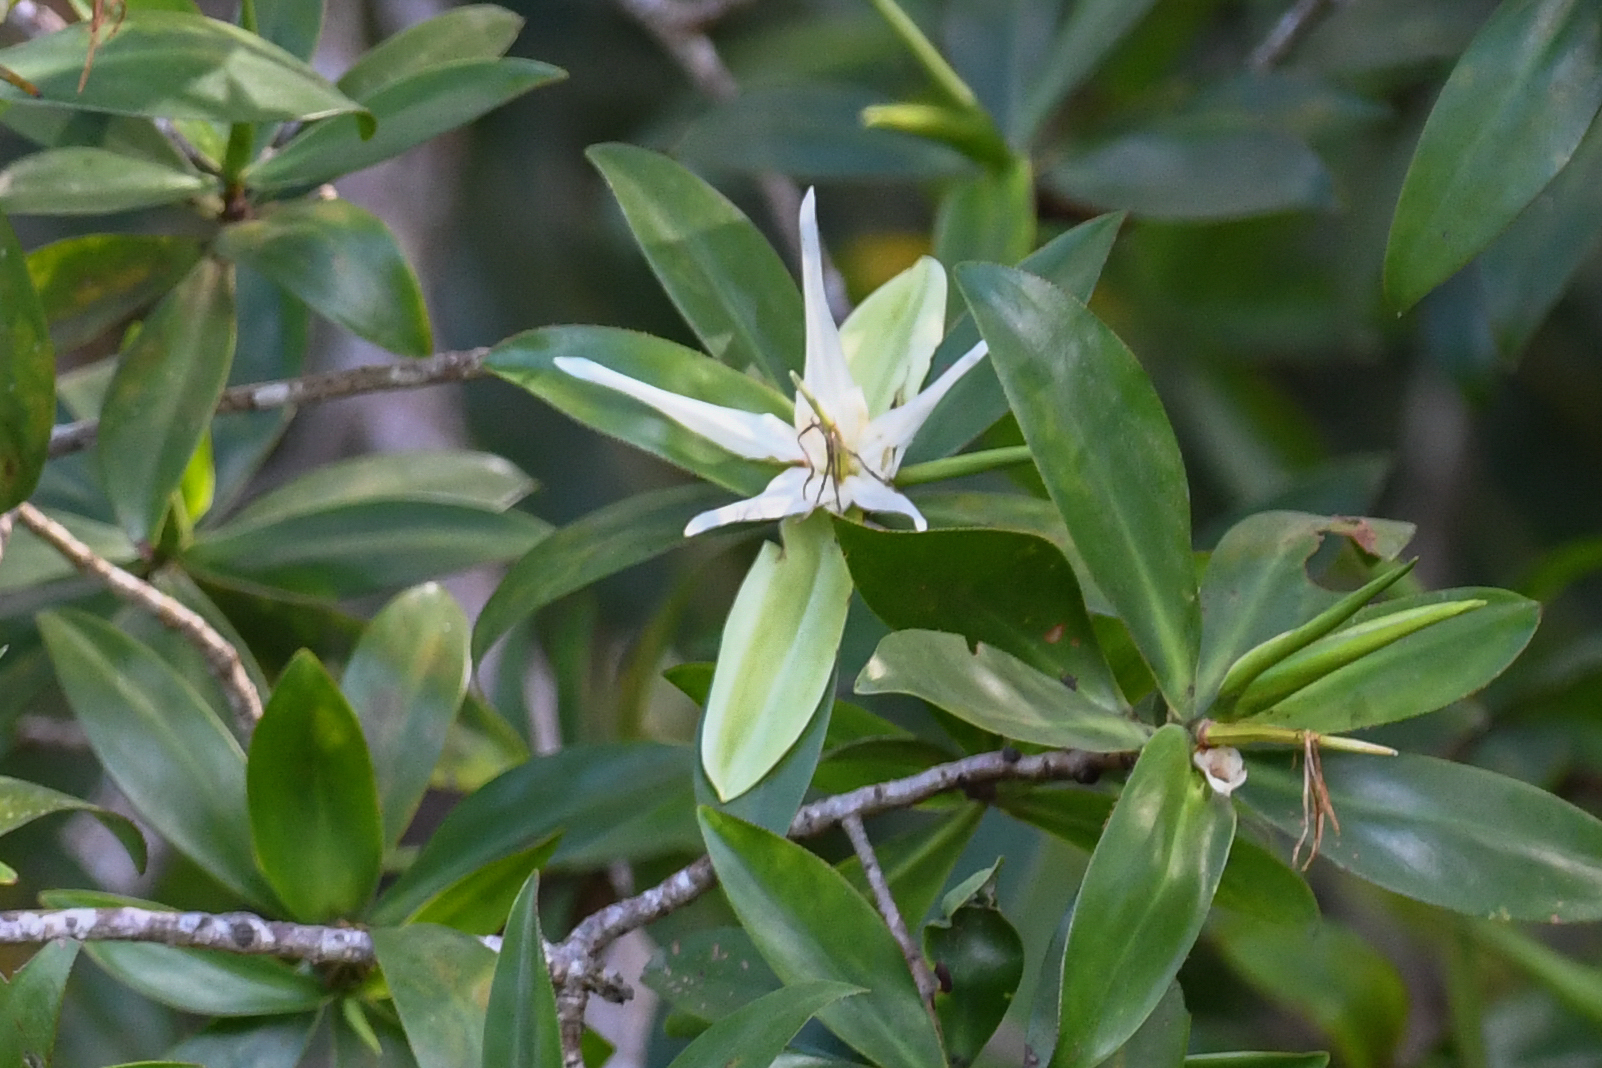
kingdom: Plantae
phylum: Tracheophyta
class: Magnoliopsida
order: Ericales
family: Tetrameristaceae
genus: Pelliciera
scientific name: Pelliciera rhizophorae
